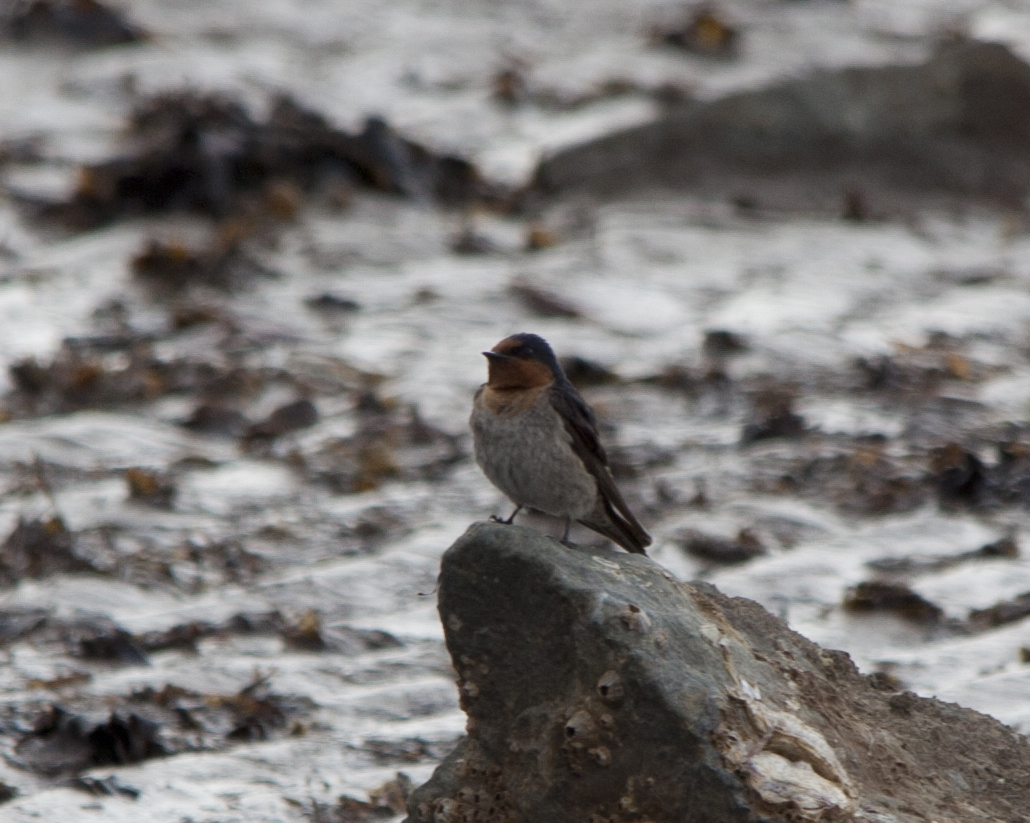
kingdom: Animalia
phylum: Chordata
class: Aves
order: Passeriformes
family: Hirundinidae
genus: Hirundo
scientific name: Hirundo neoxena
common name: Welcome swallow
